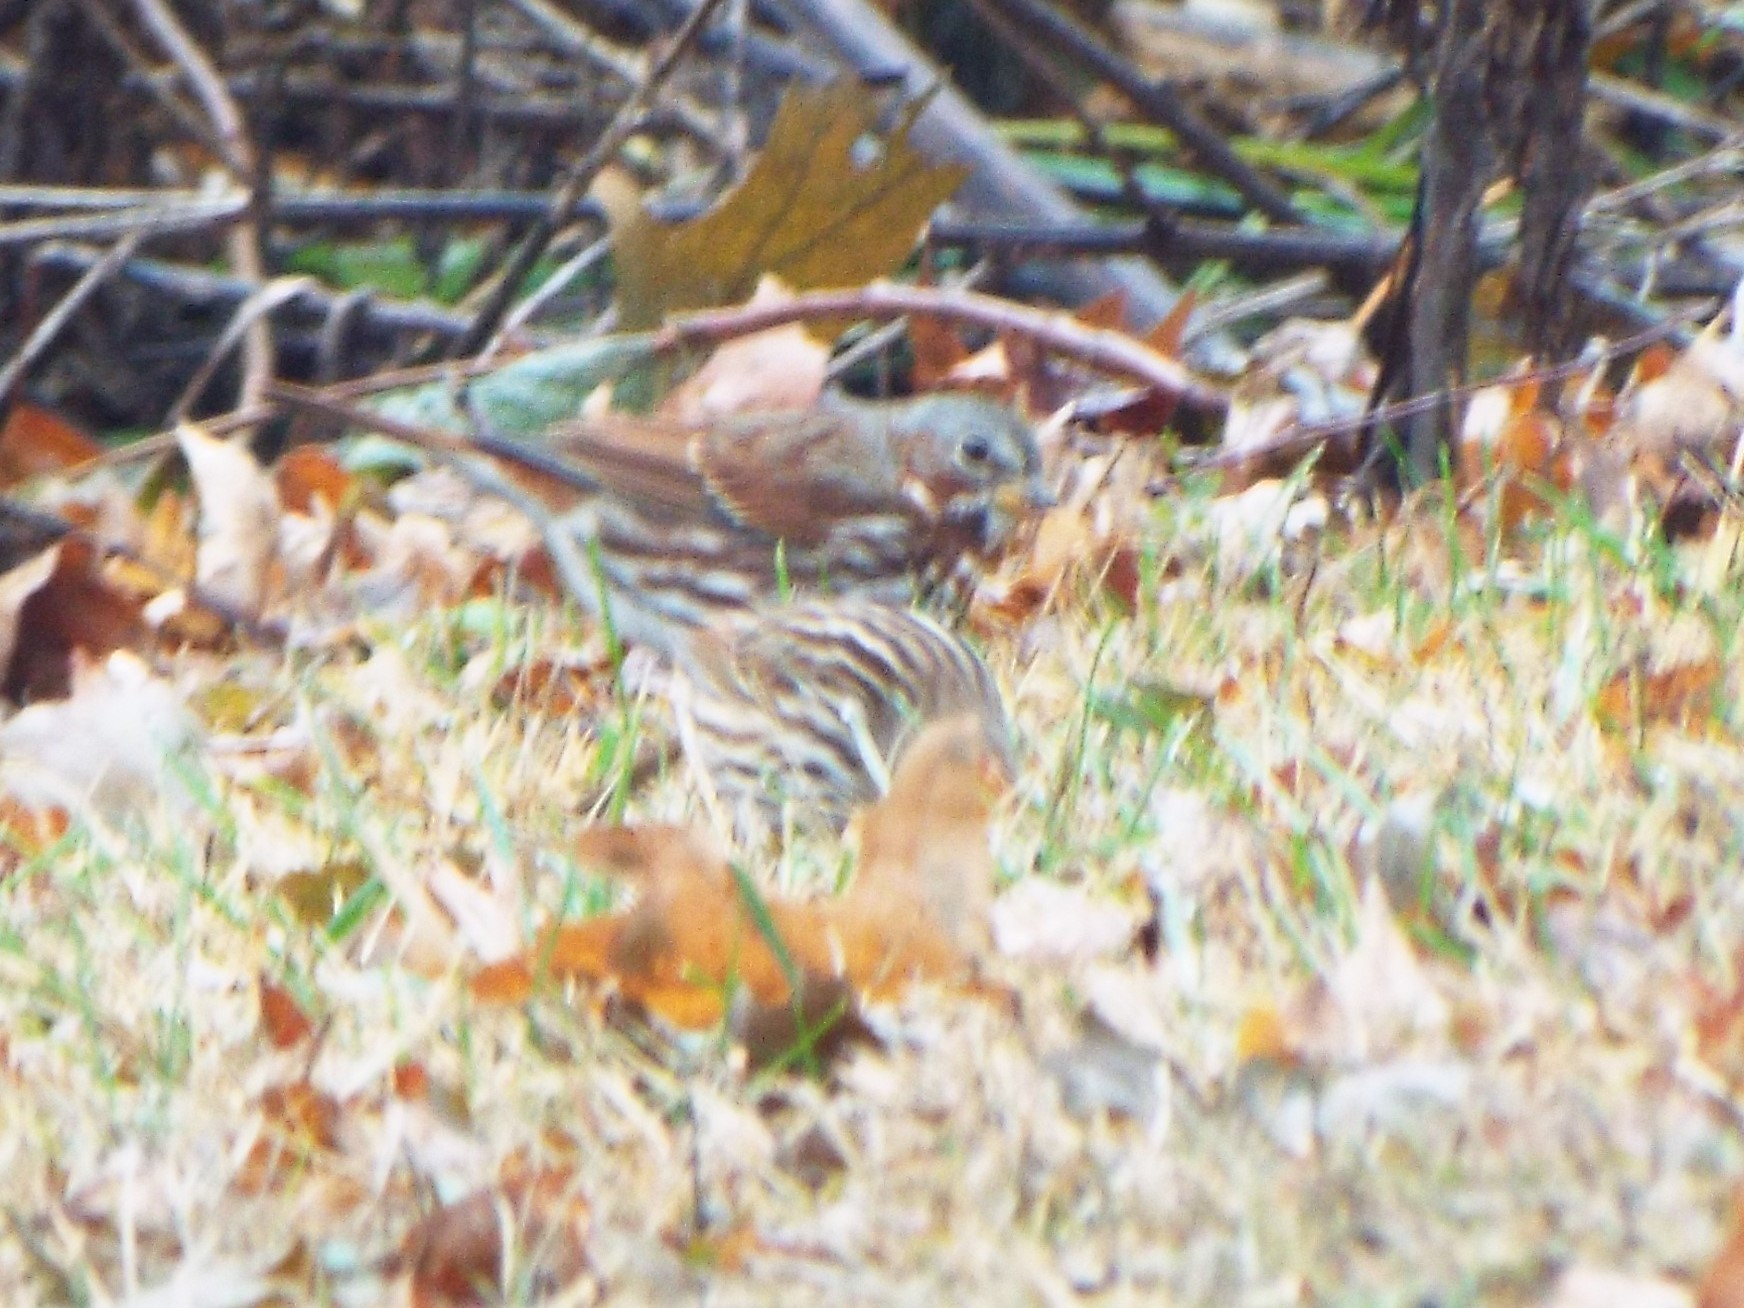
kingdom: Animalia
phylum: Chordata
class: Aves
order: Passeriformes
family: Passerellidae
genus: Passerella
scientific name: Passerella iliaca
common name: Fox sparrow
